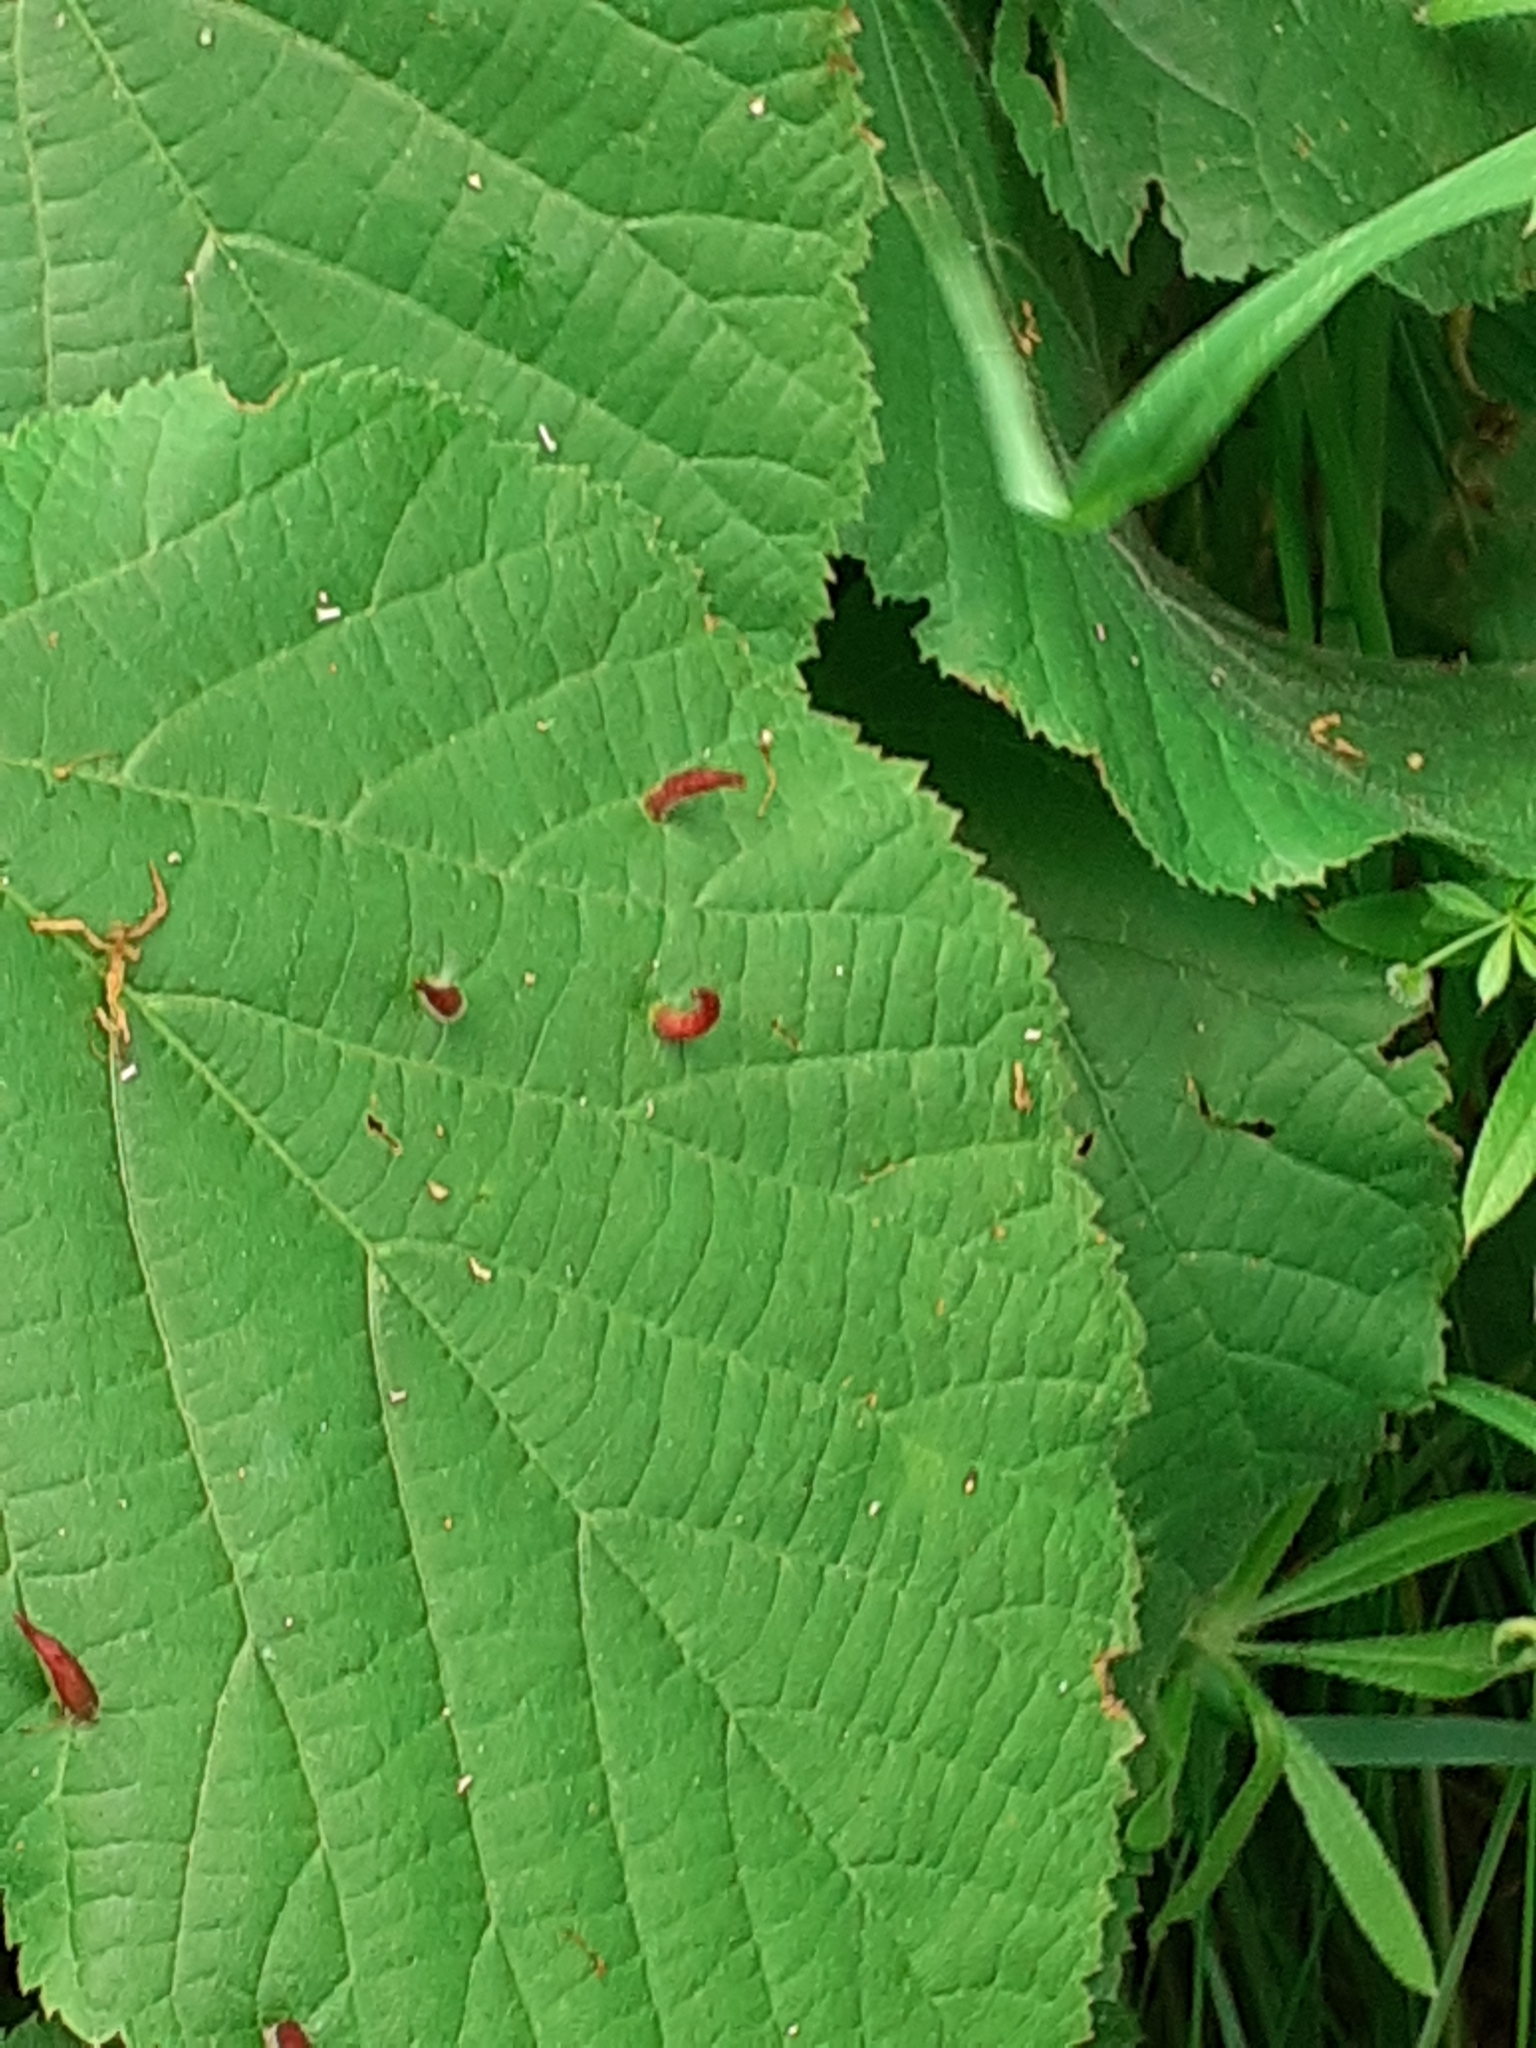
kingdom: Animalia
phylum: Arthropoda
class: Arachnida
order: Trombidiformes
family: Eriophyidae
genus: Eriophyes
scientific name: Eriophyes tiliae
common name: Red nail gall mite
